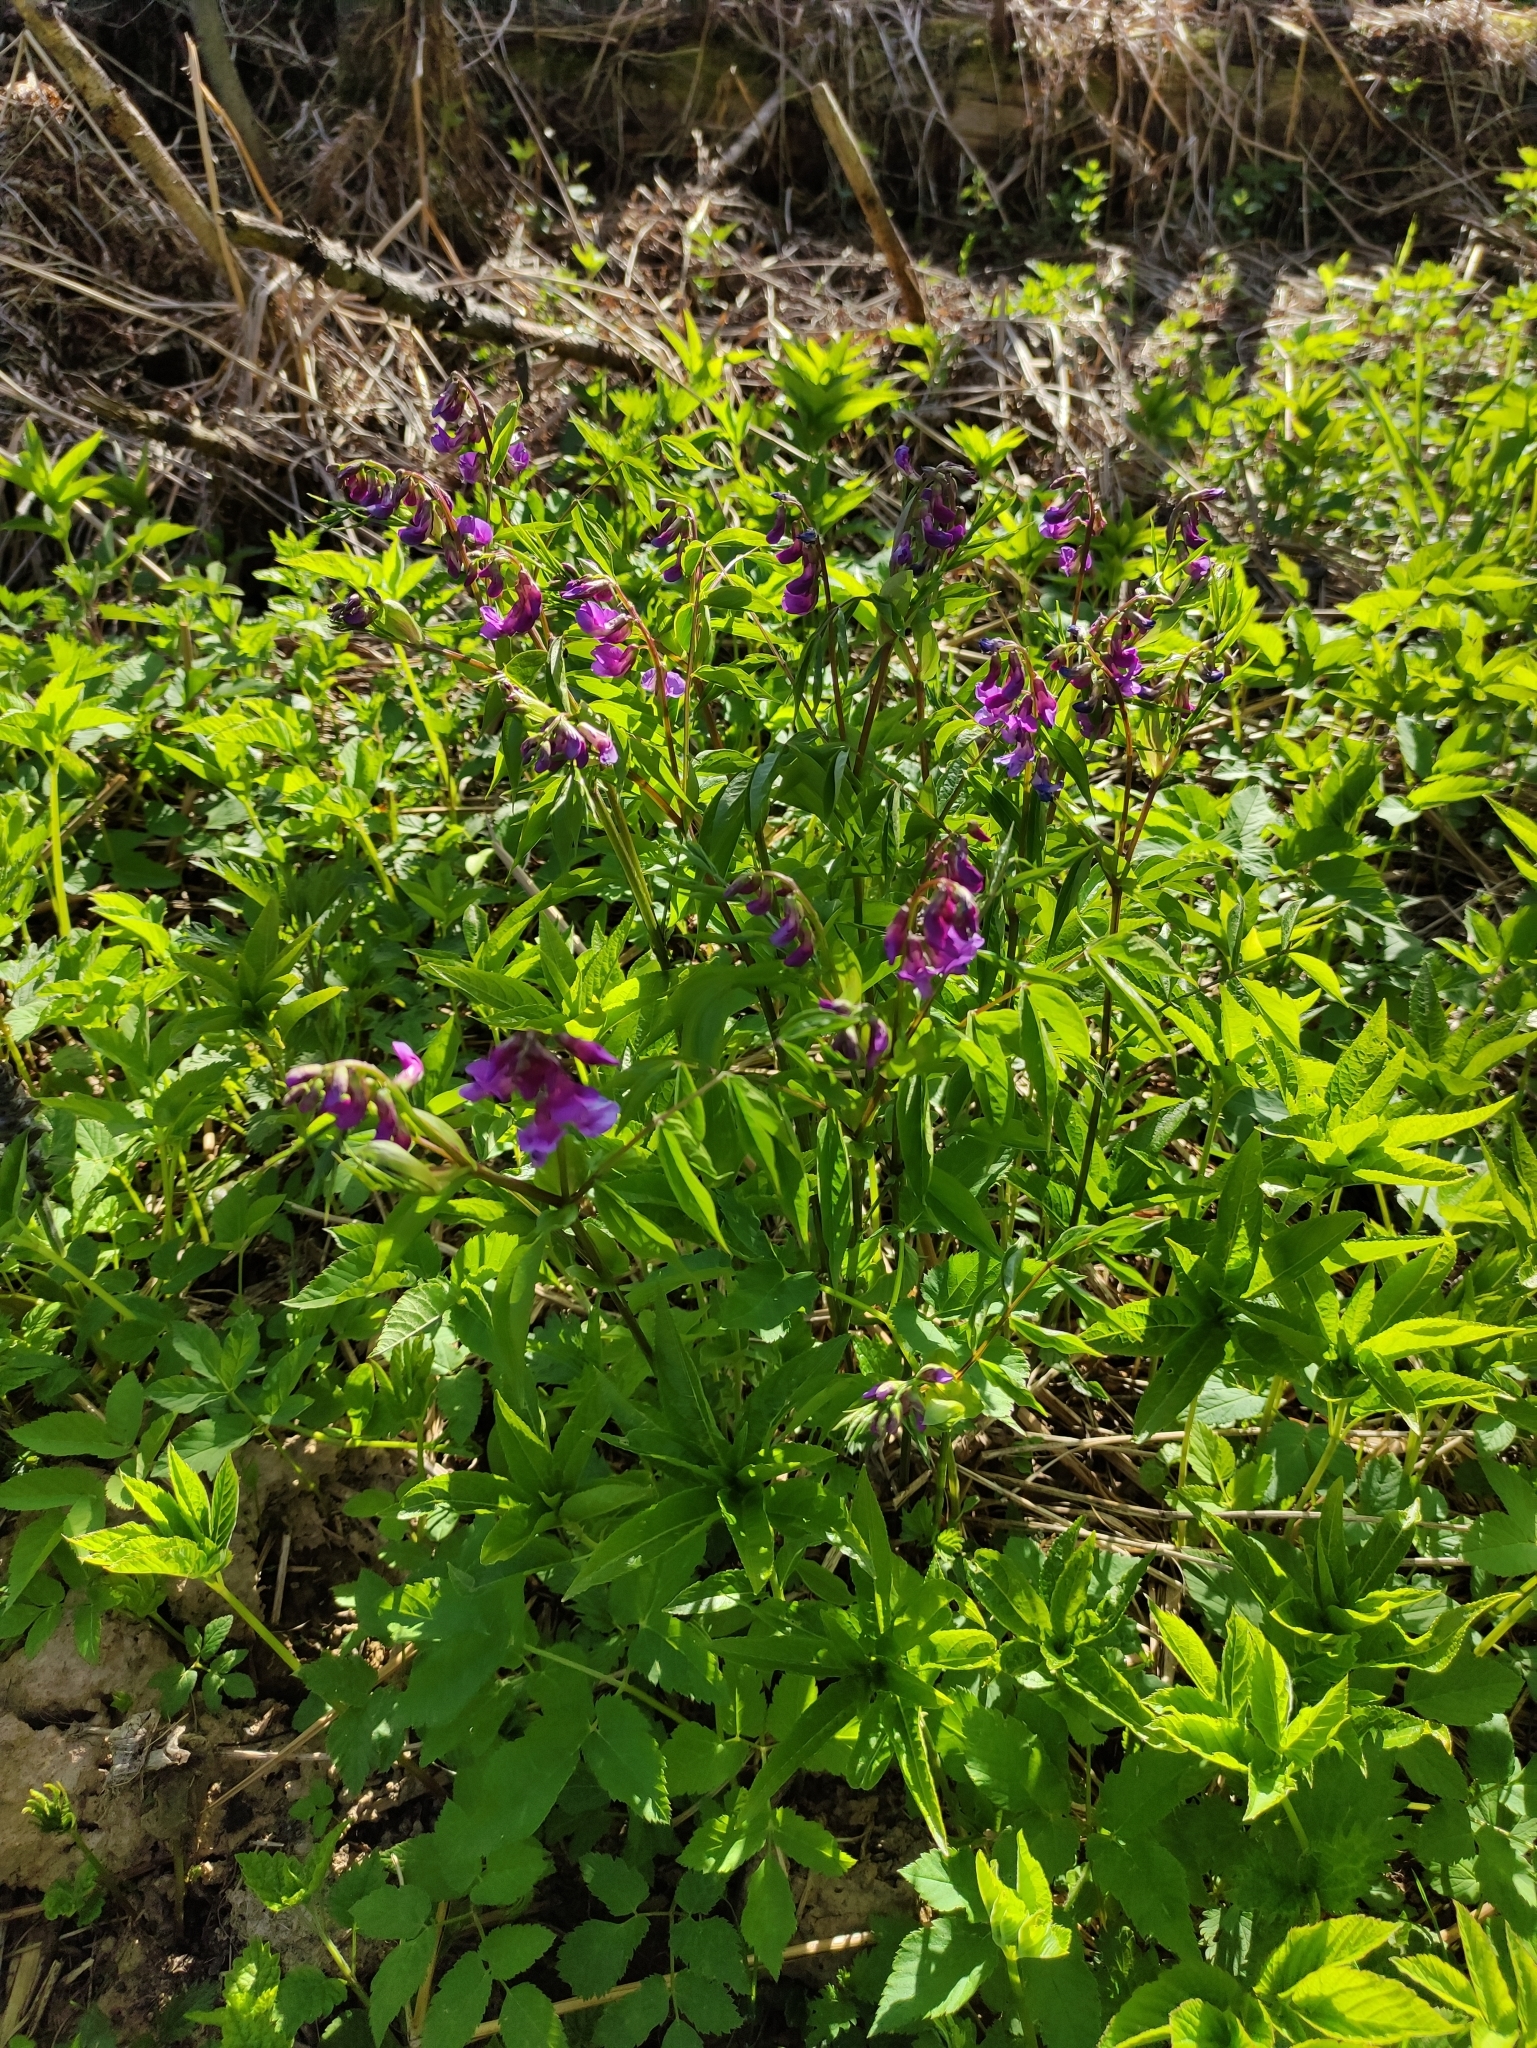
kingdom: Plantae
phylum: Tracheophyta
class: Magnoliopsida
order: Fabales
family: Fabaceae
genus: Lathyrus
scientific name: Lathyrus vernus
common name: Spring pea
